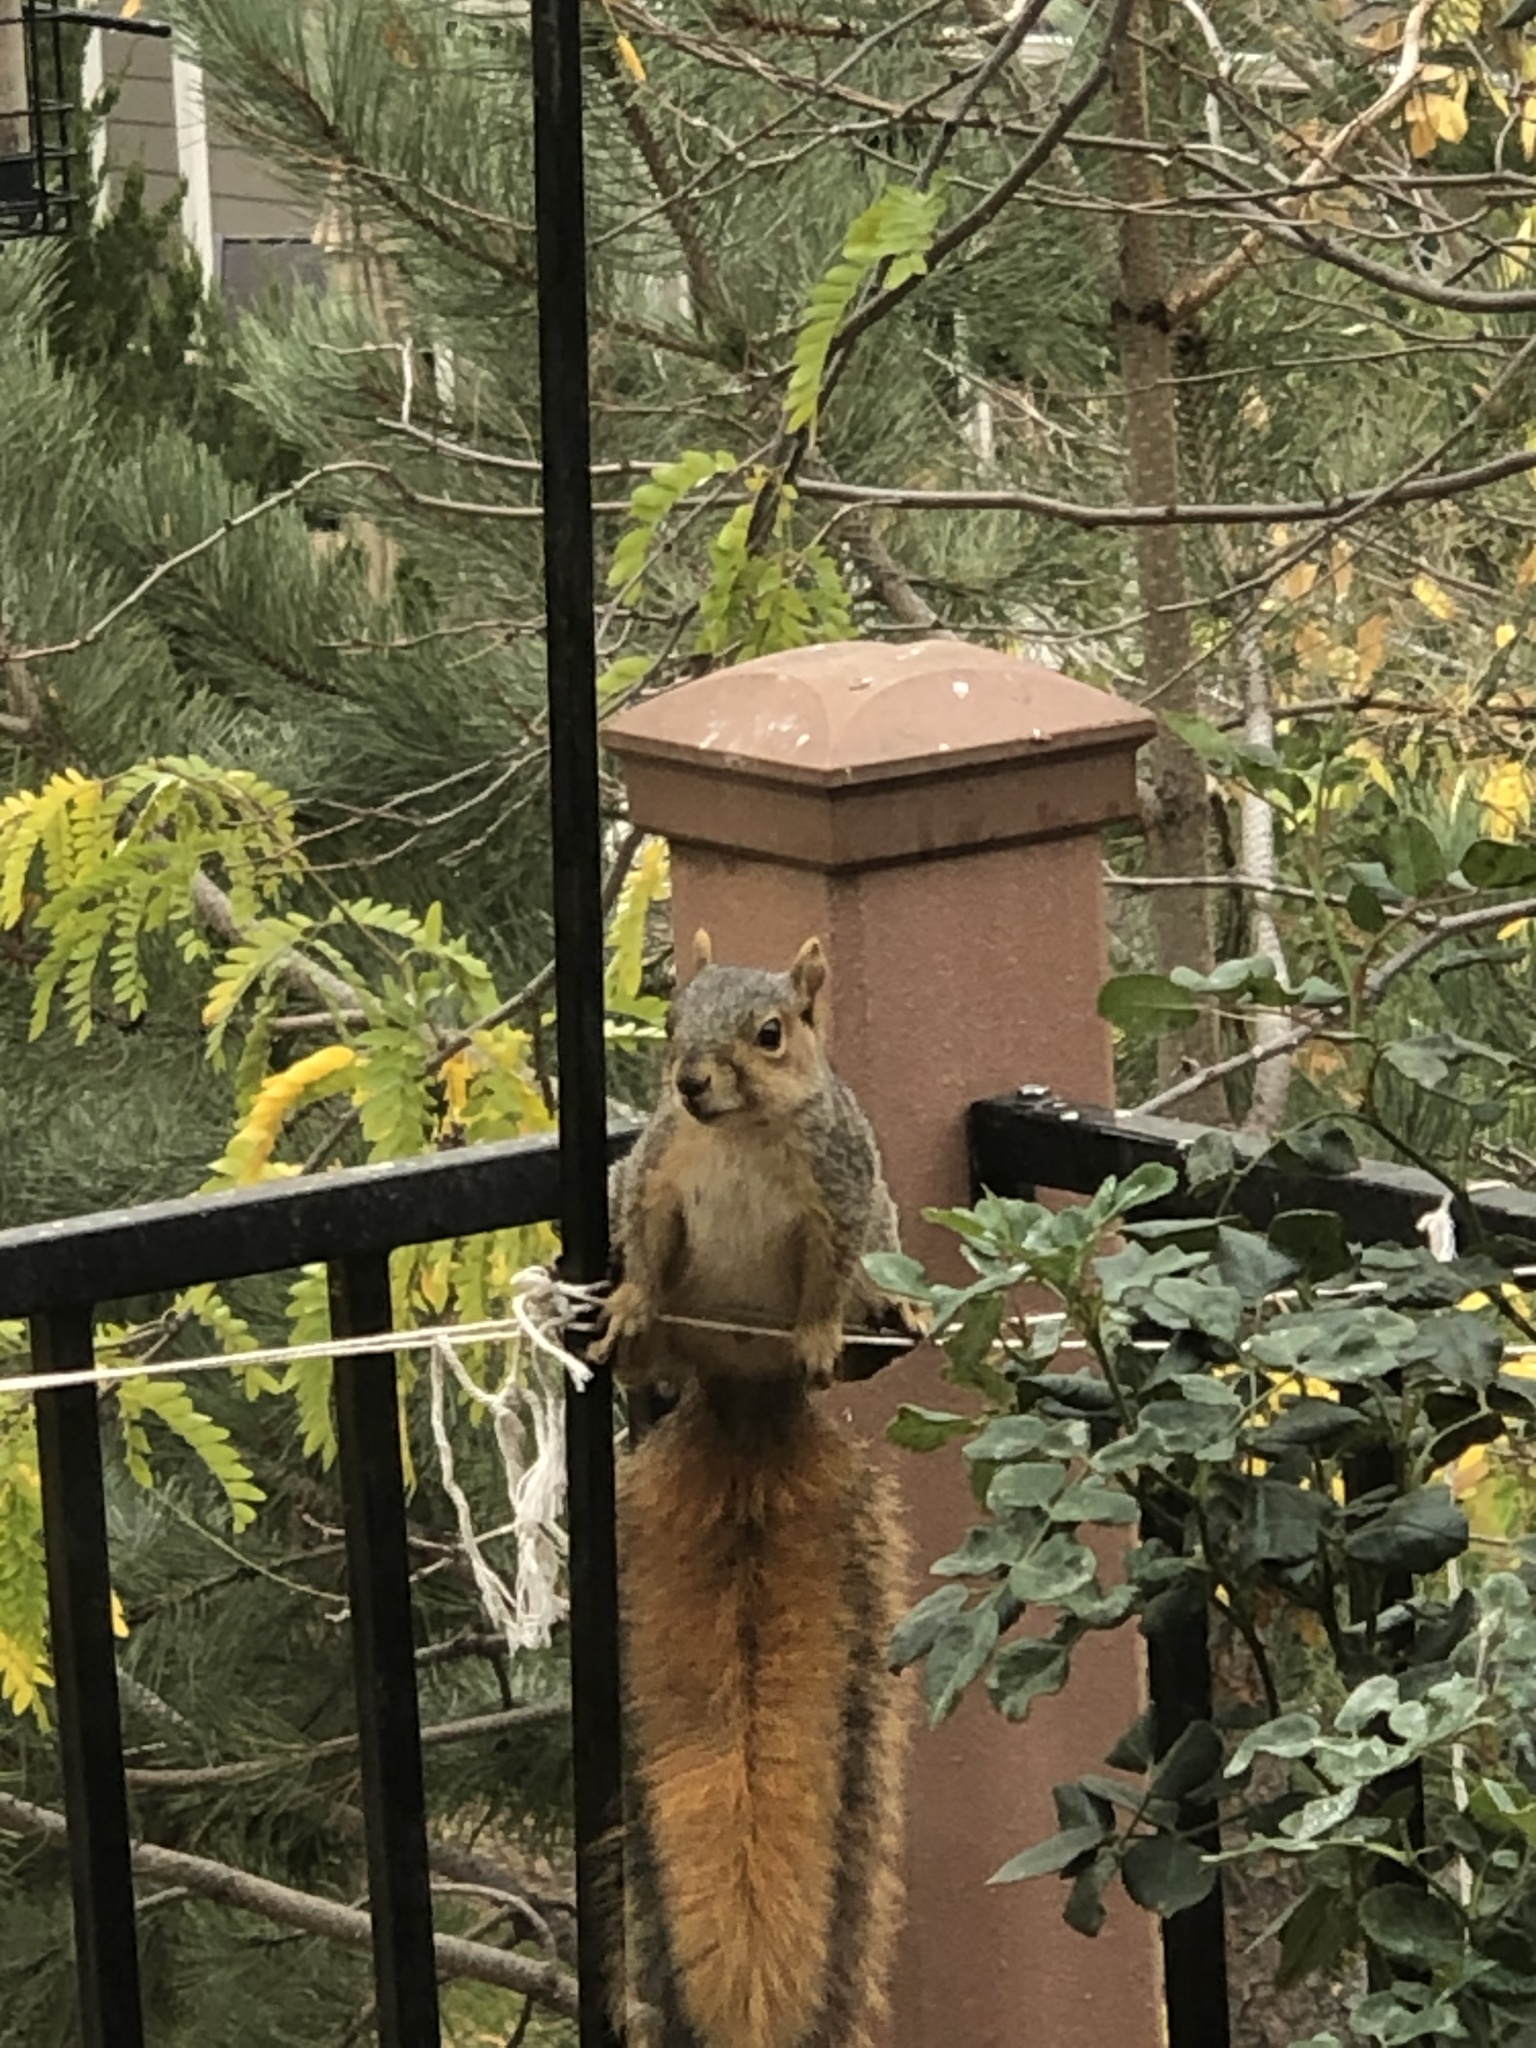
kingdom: Animalia
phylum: Chordata
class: Mammalia
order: Rodentia
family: Sciuridae
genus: Sciurus
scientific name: Sciurus niger
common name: Fox squirrel
